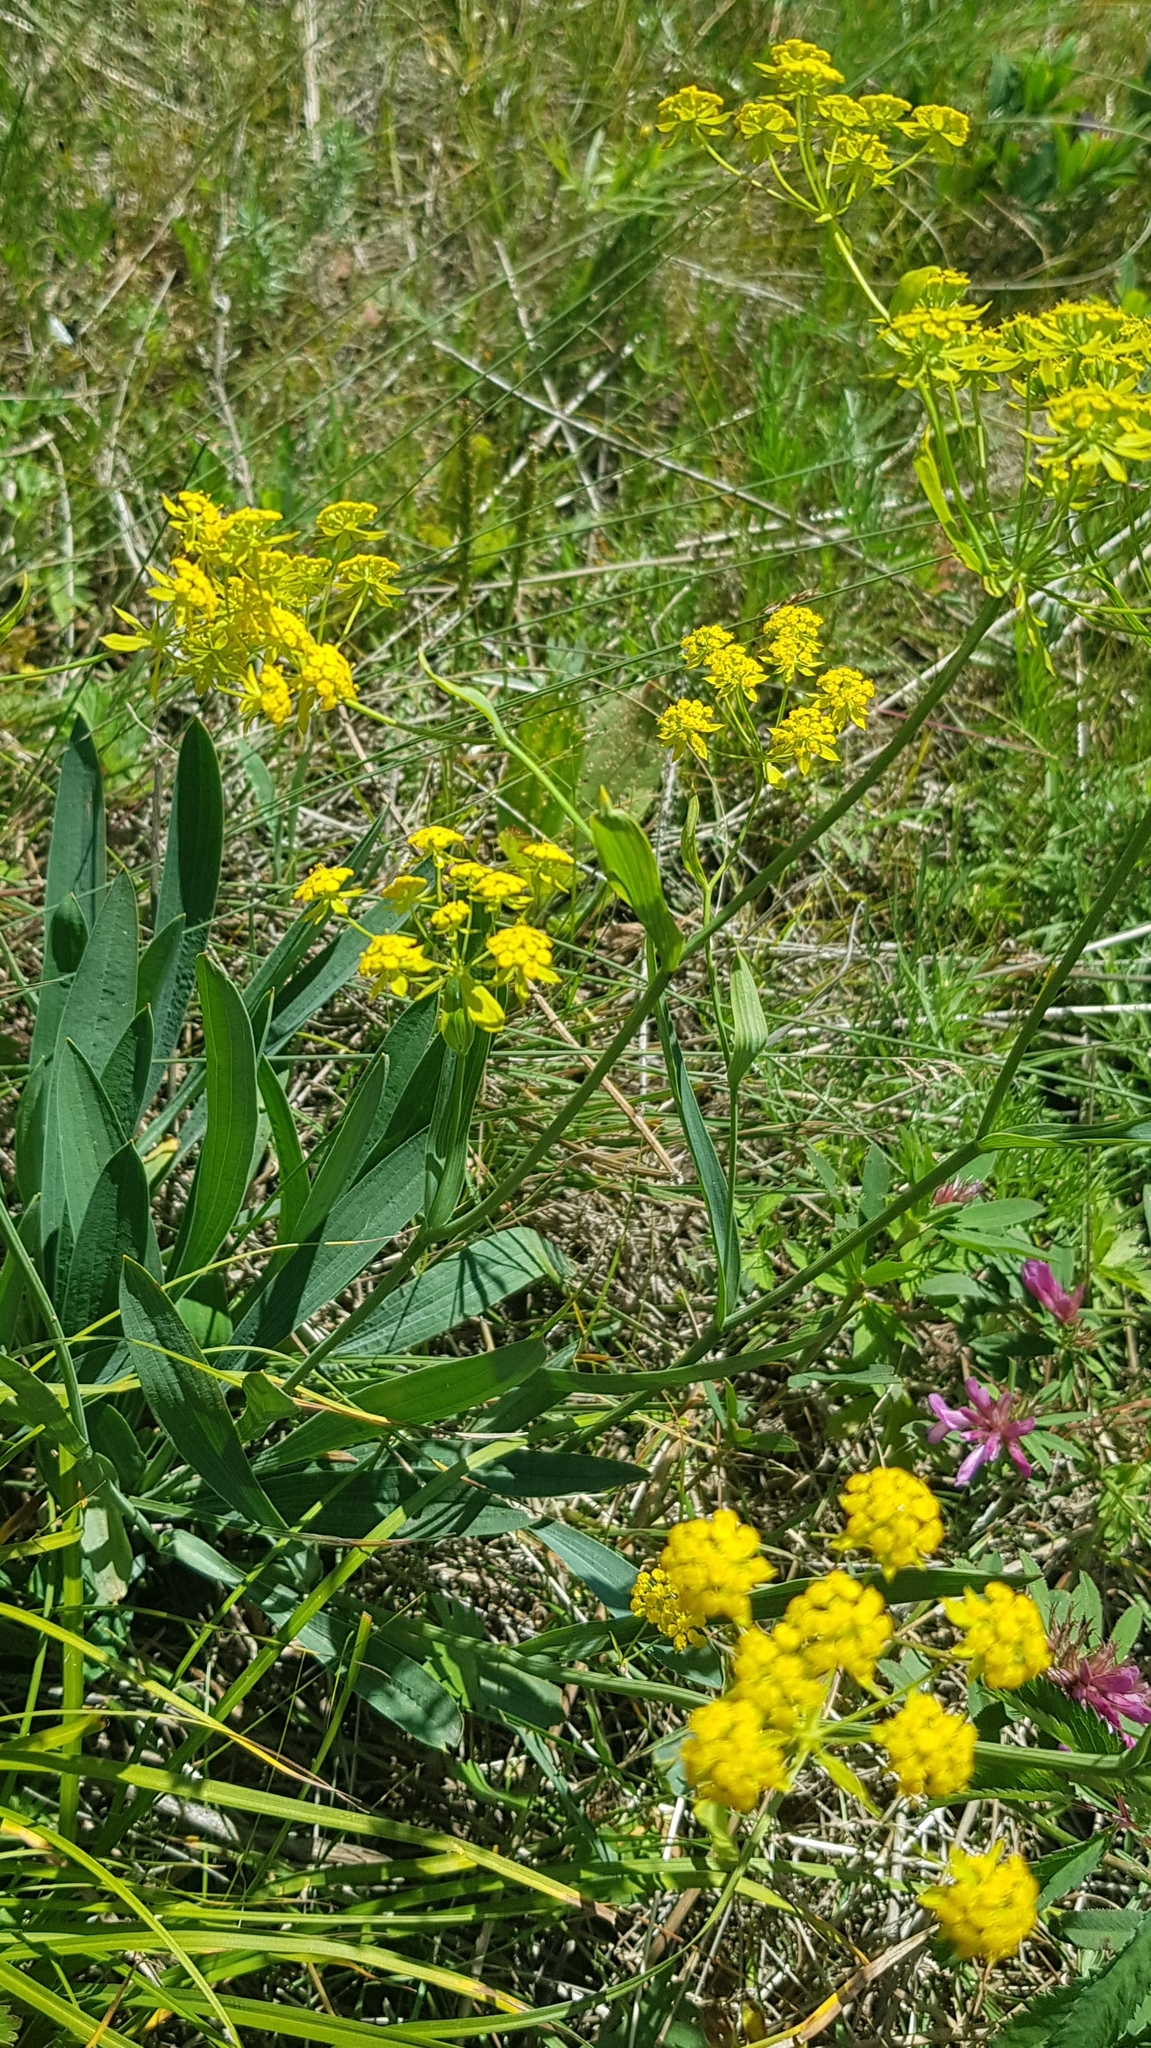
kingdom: Plantae
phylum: Tracheophyta
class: Magnoliopsida
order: Apiales
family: Apiaceae
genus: Bupleurum
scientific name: Bupleurum sibiricum
